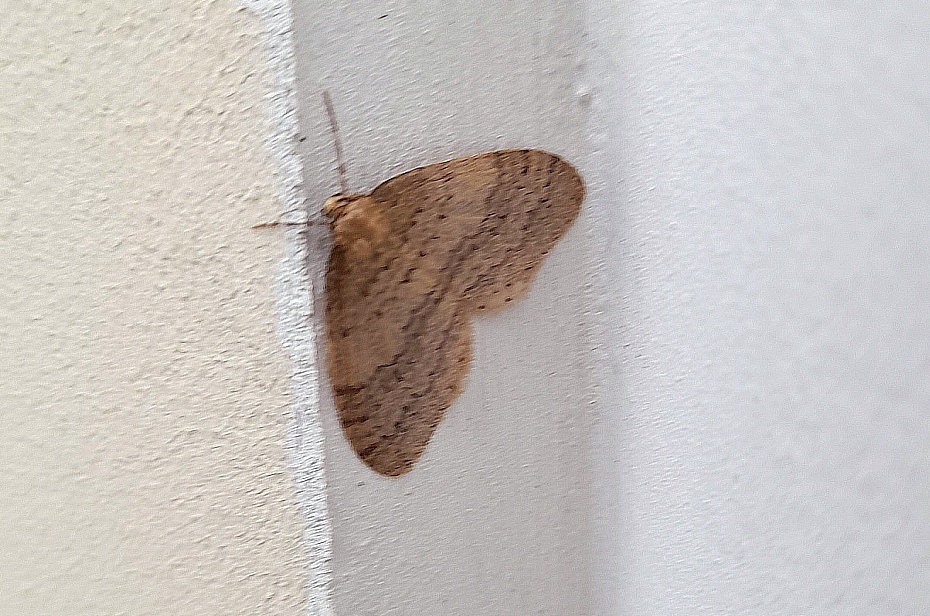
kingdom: Animalia
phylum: Arthropoda
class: Insecta
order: Lepidoptera
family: Geometridae
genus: Operophtera
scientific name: Operophtera brumata
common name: Winter moth
